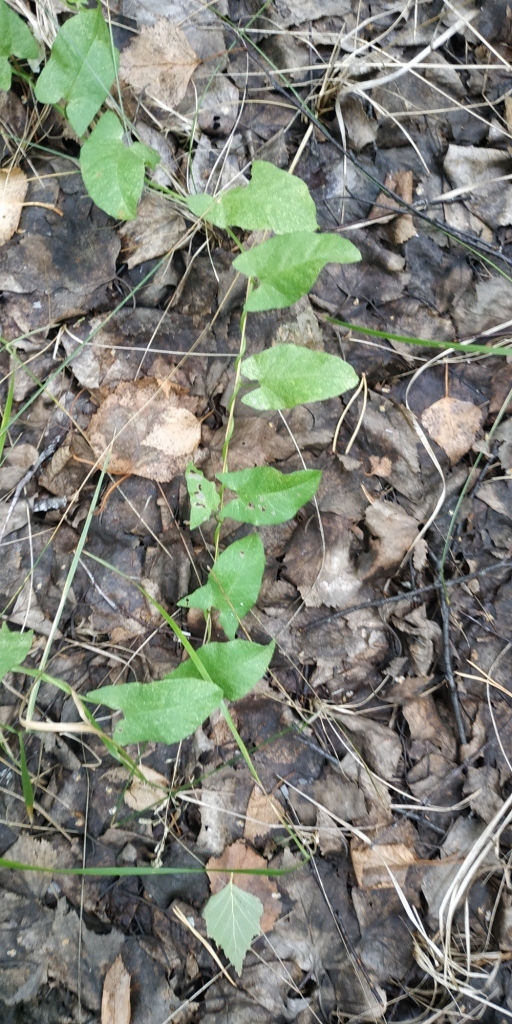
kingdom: Plantae
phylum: Tracheophyta
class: Magnoliopsida
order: Solanales
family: Convolvulaceae
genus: Convolvulus
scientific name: Convolvulus arvensis
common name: Field bindweed
